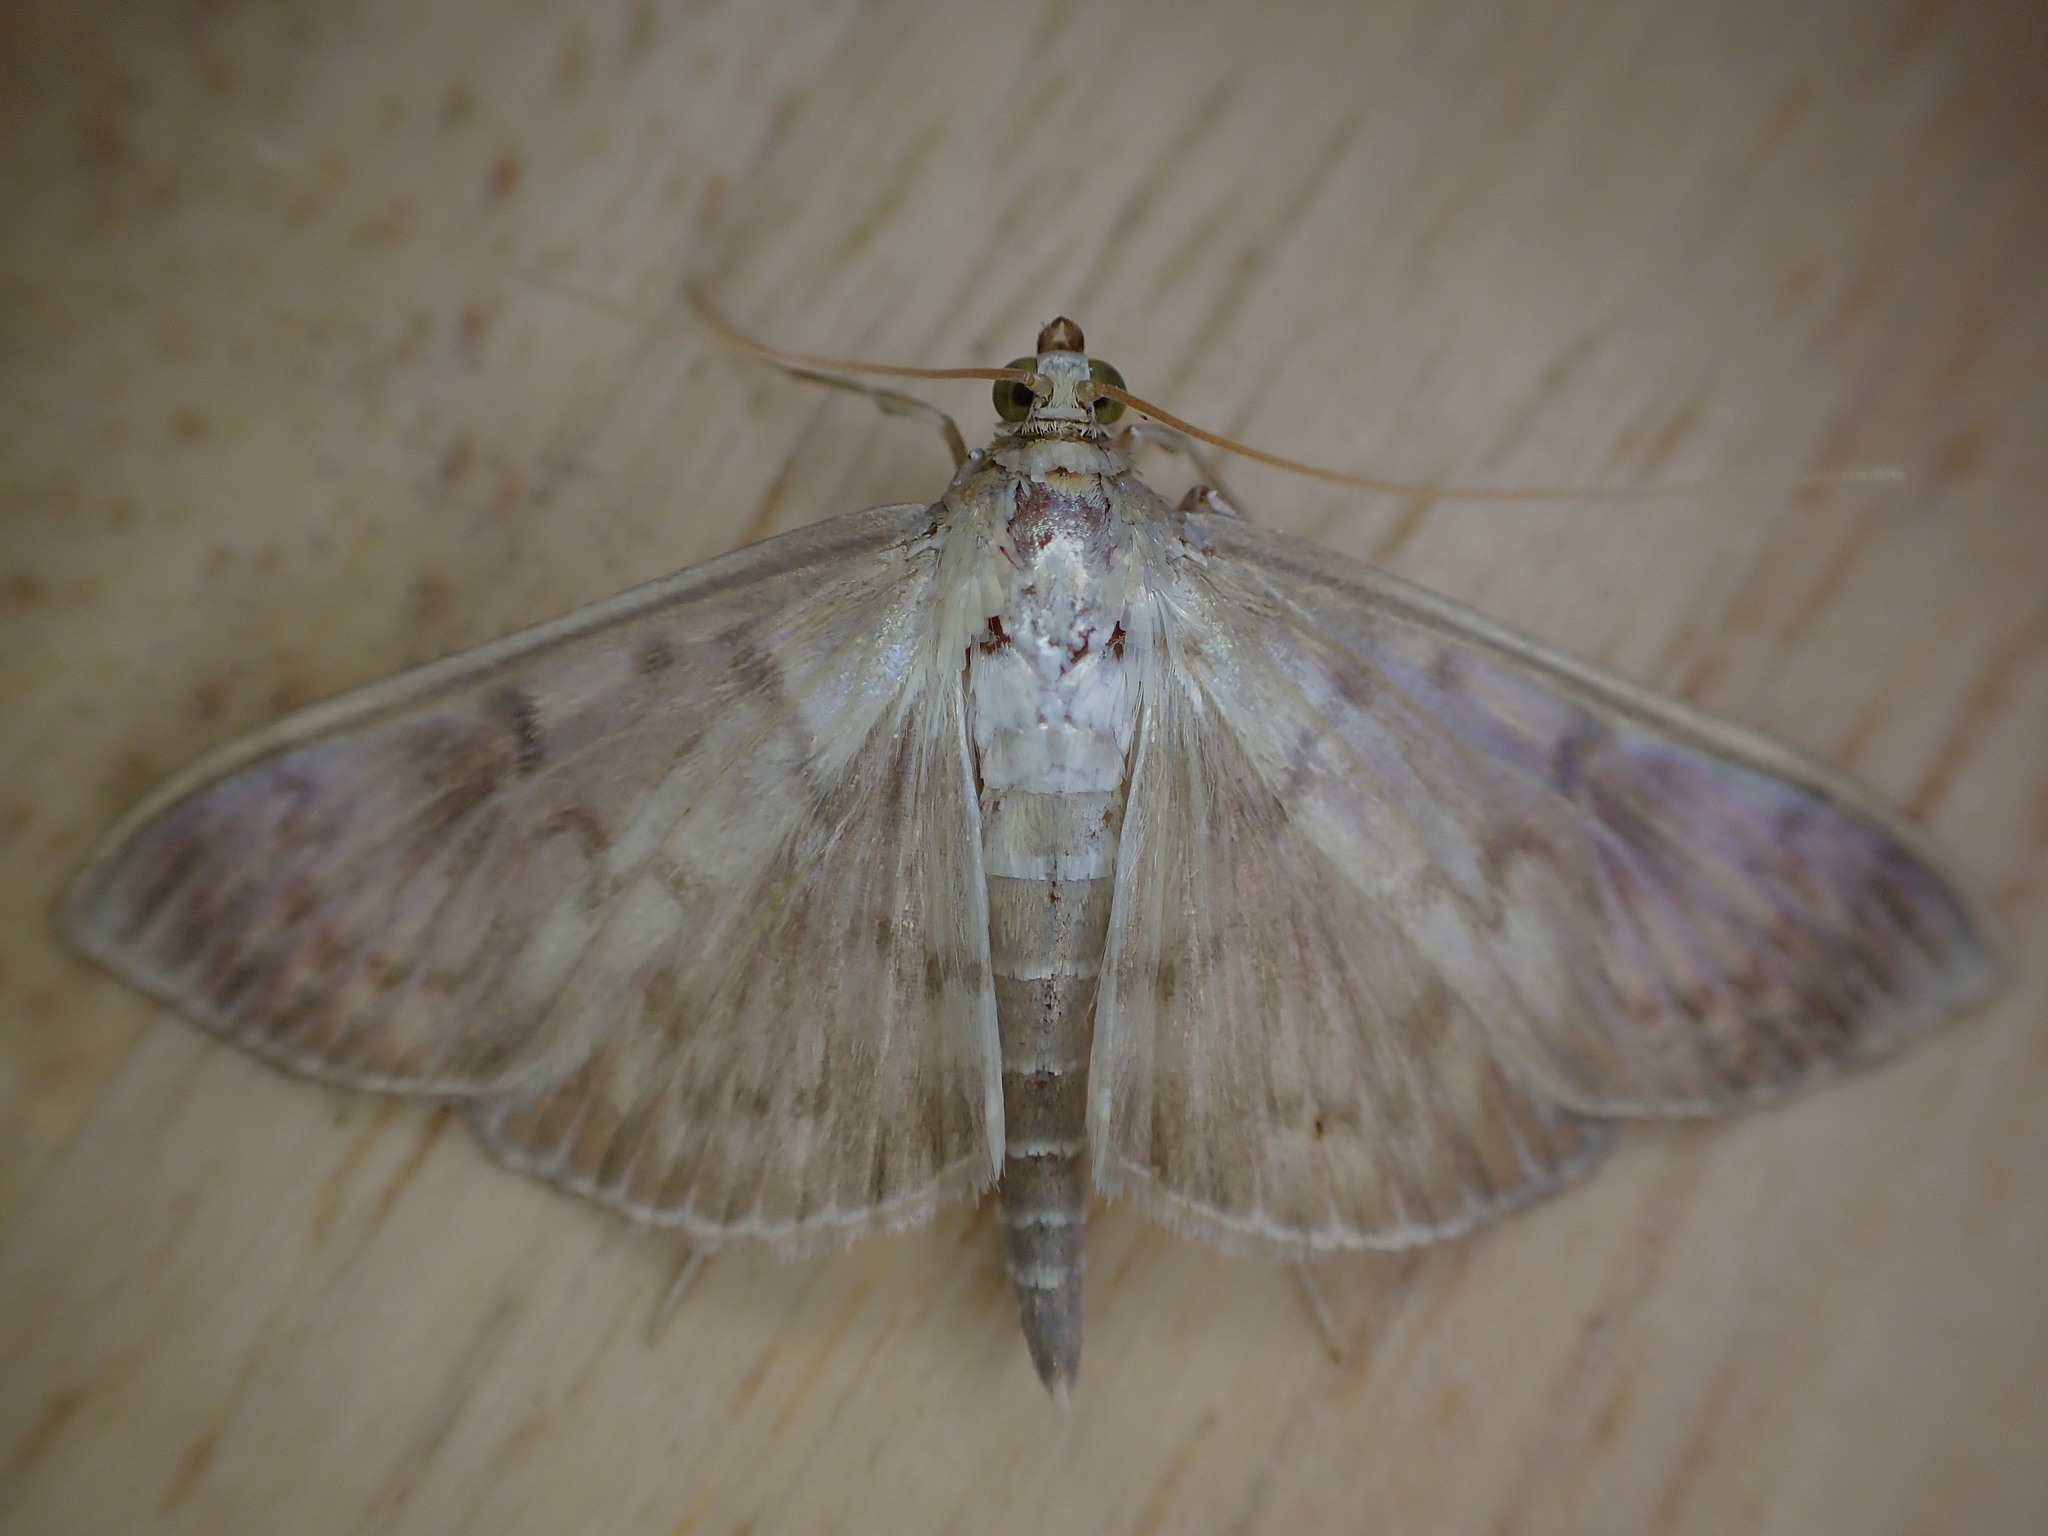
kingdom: Animalia
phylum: Arthropoda
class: Insecta
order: Lepidoptera
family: Crambidae
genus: Patania
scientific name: Patania ruralis
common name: Mother of pearl
